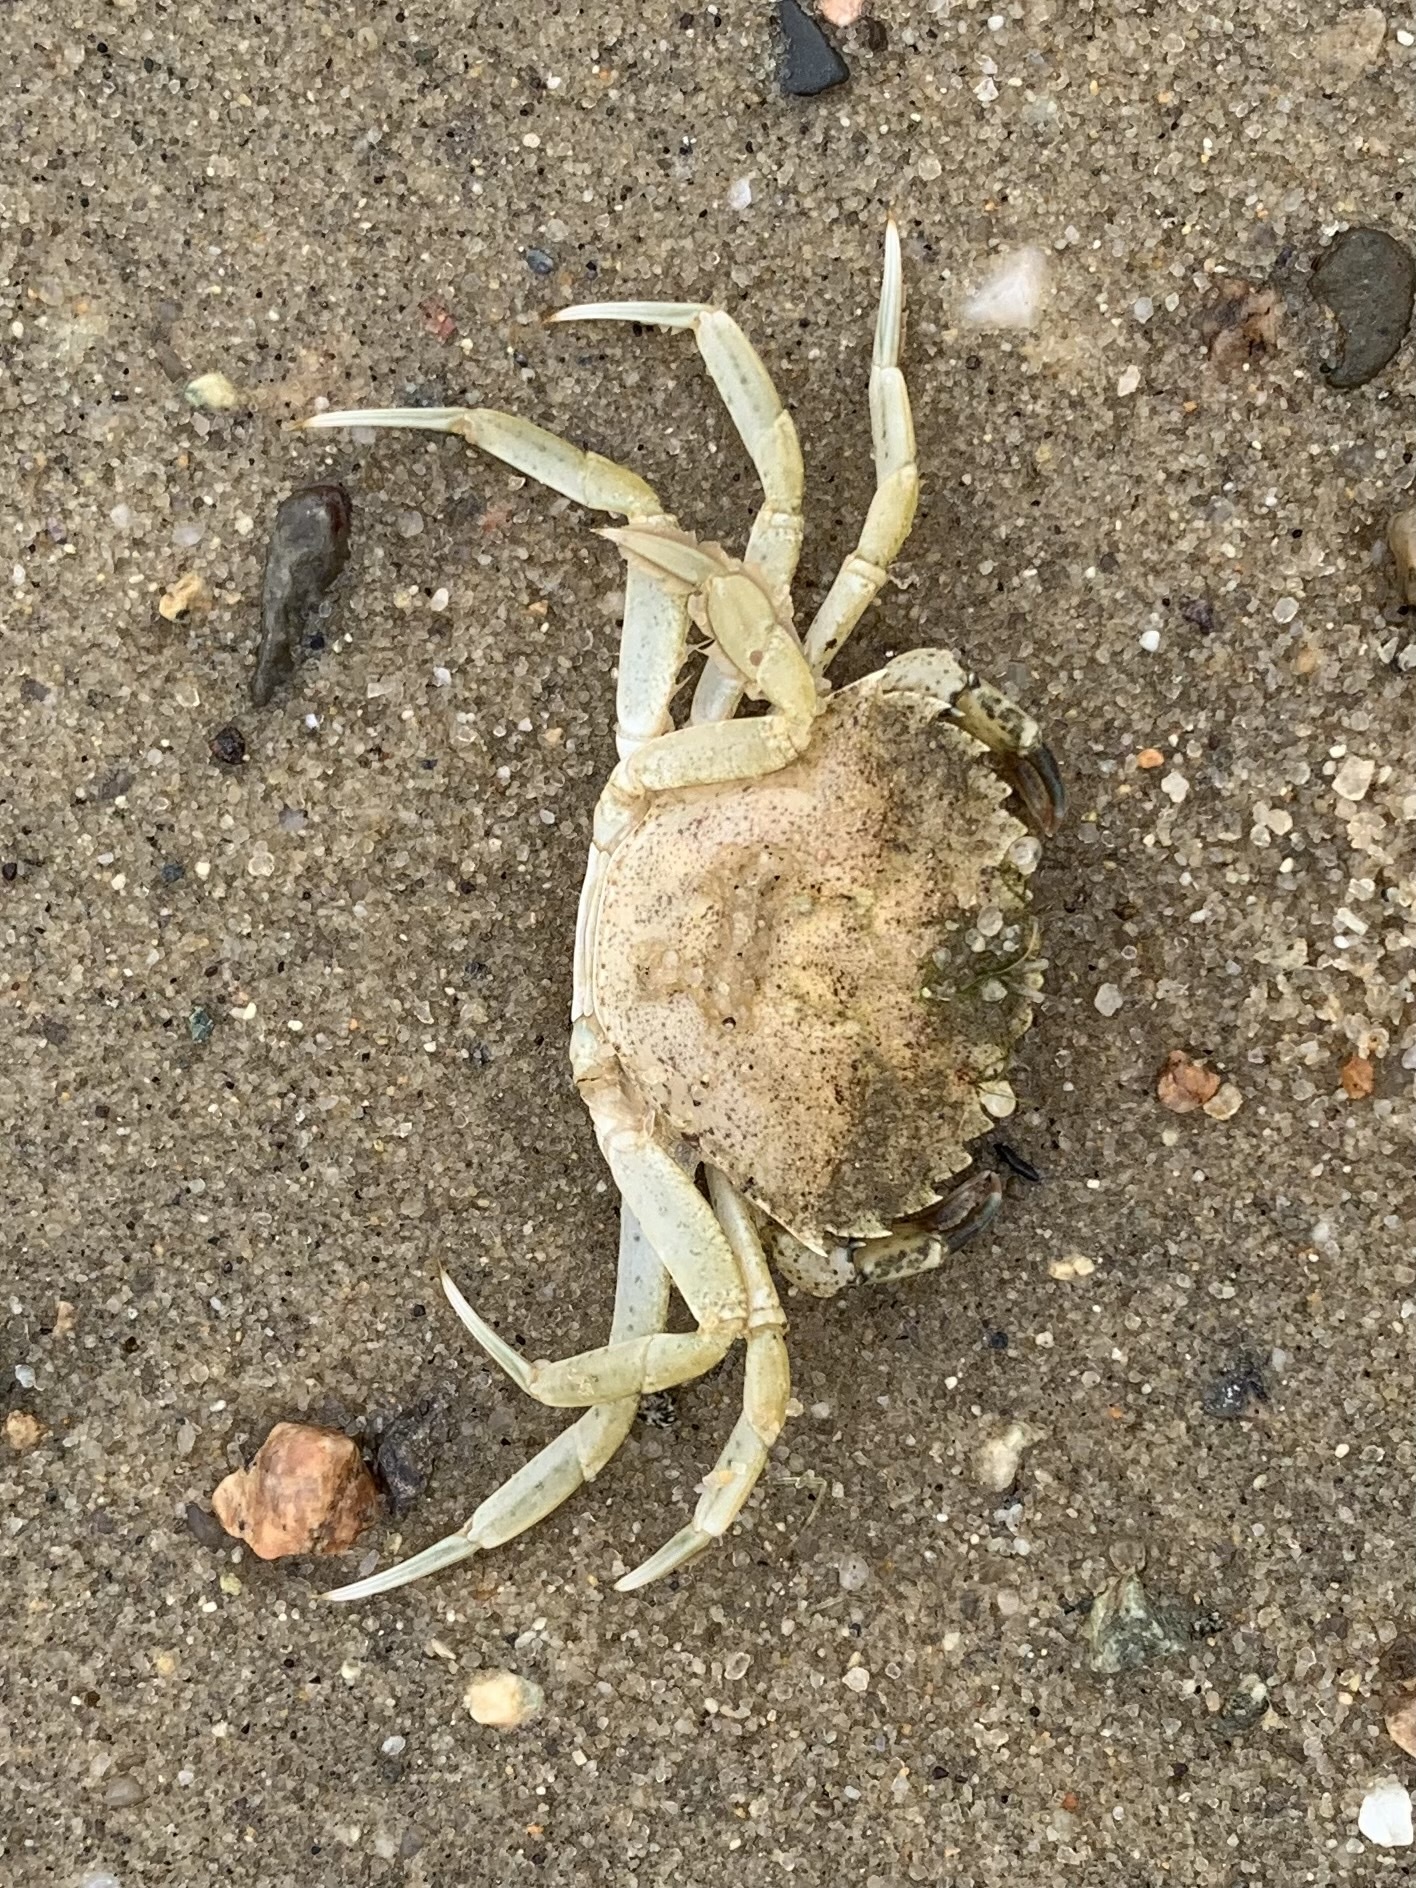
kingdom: Animalia
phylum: Arthropoda
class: Malacostraca
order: Decapoda
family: Carcinidae
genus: Carcinus
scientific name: Carcinus maenas
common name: European green crab
